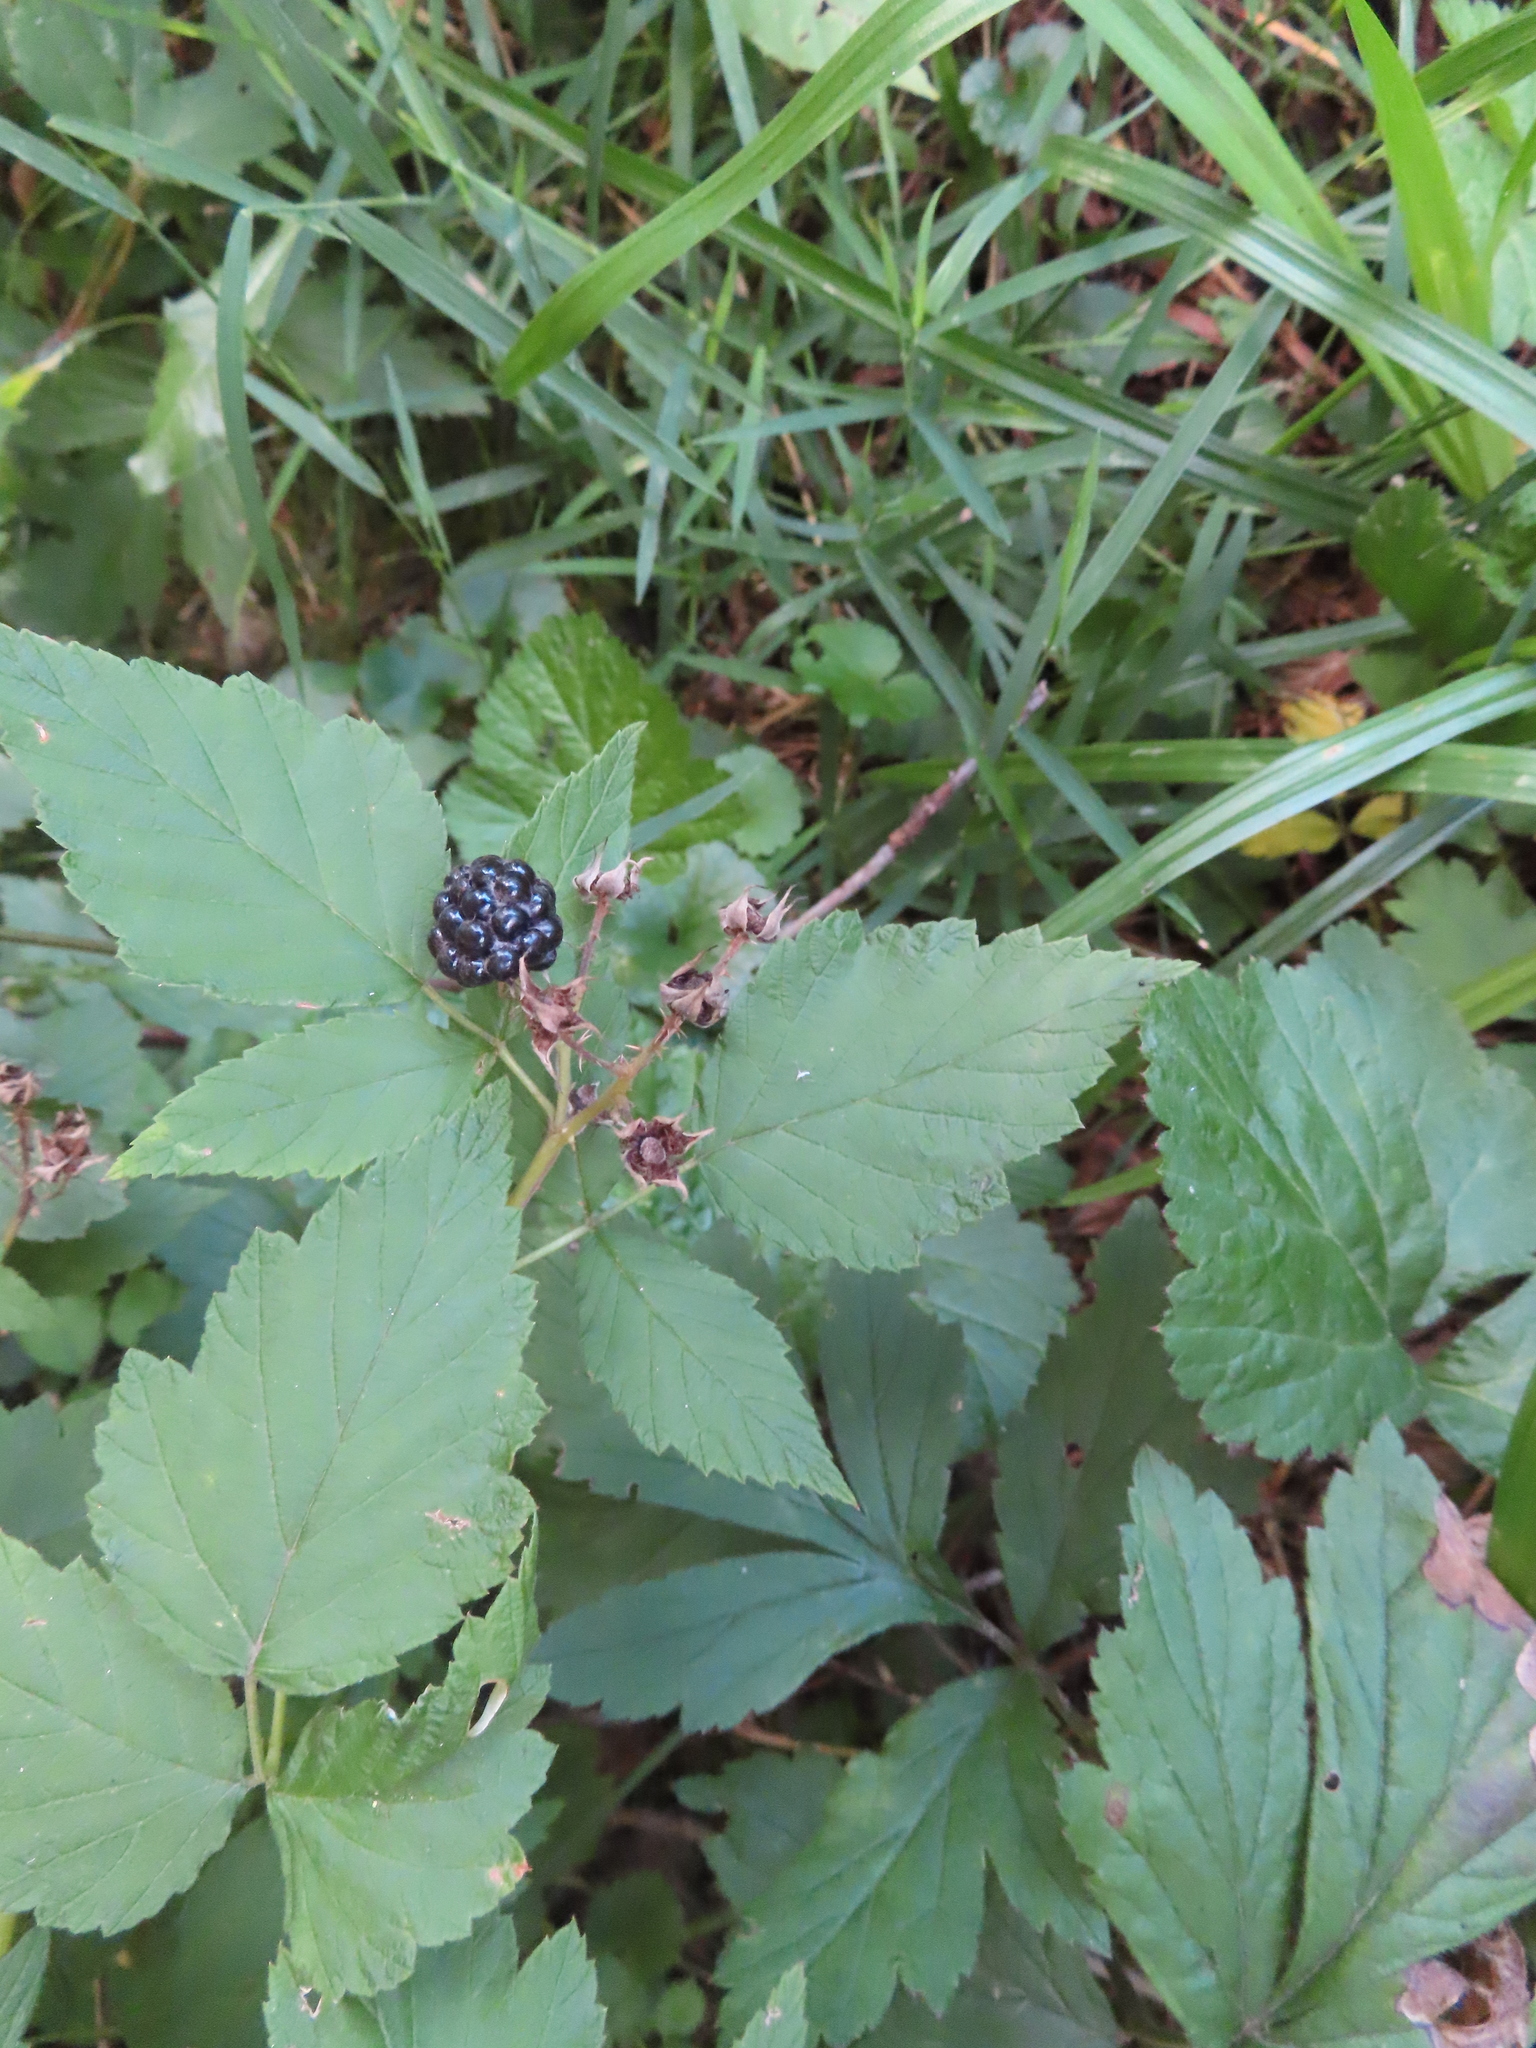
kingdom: Plantae
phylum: Tracheophyta
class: Magnoliopsida
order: Rosales
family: Rosaceae
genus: Rubus
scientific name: Rubus occidentalis
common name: Black raspberry
